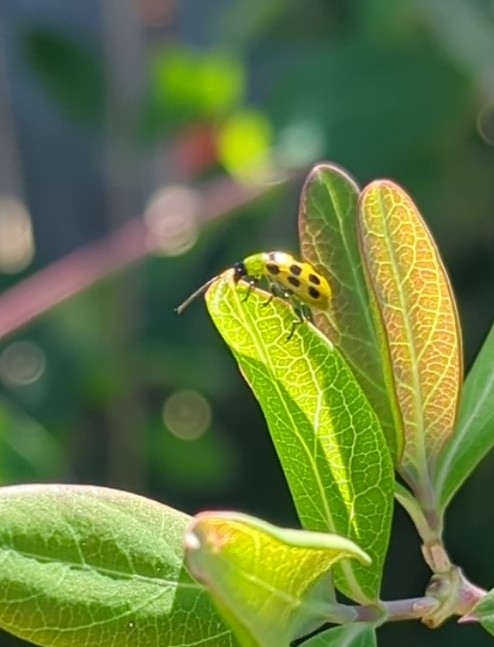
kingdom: Animalia
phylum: Arthropoda
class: Insecta
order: Coleoptera
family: Chrysomelidae
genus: Diabrotica
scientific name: Diabrotica undecimpunctata
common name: Spotted cucumber beetle
